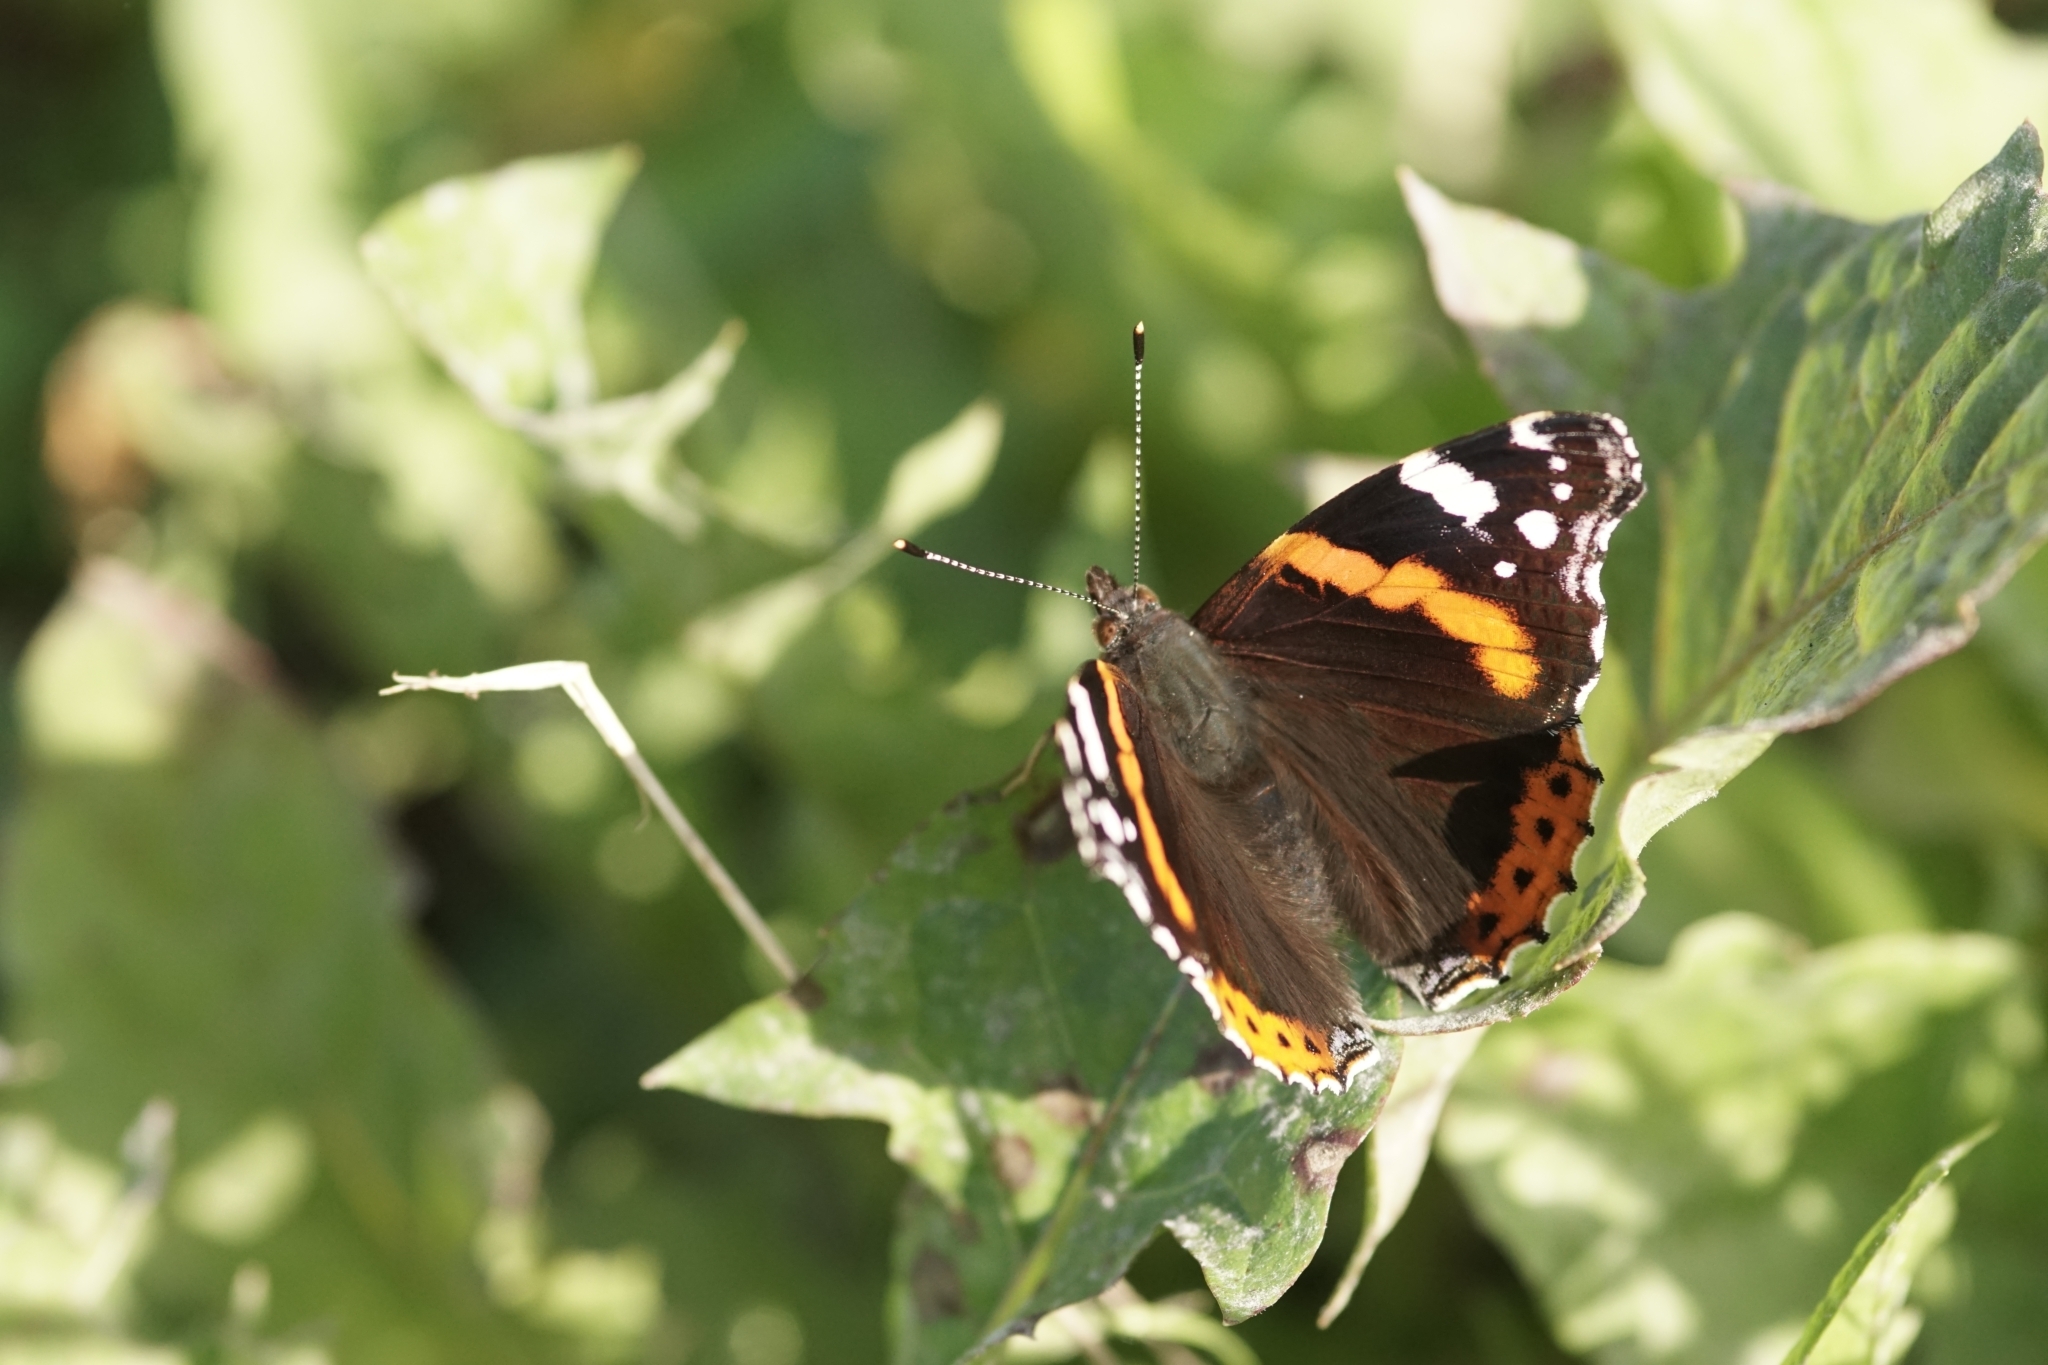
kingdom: Animalia
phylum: Arthropoda
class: Insecta
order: Lepidoptera
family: Nymphalidae
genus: Vanessa
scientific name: Vanessa atalanta
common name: Red admiral
